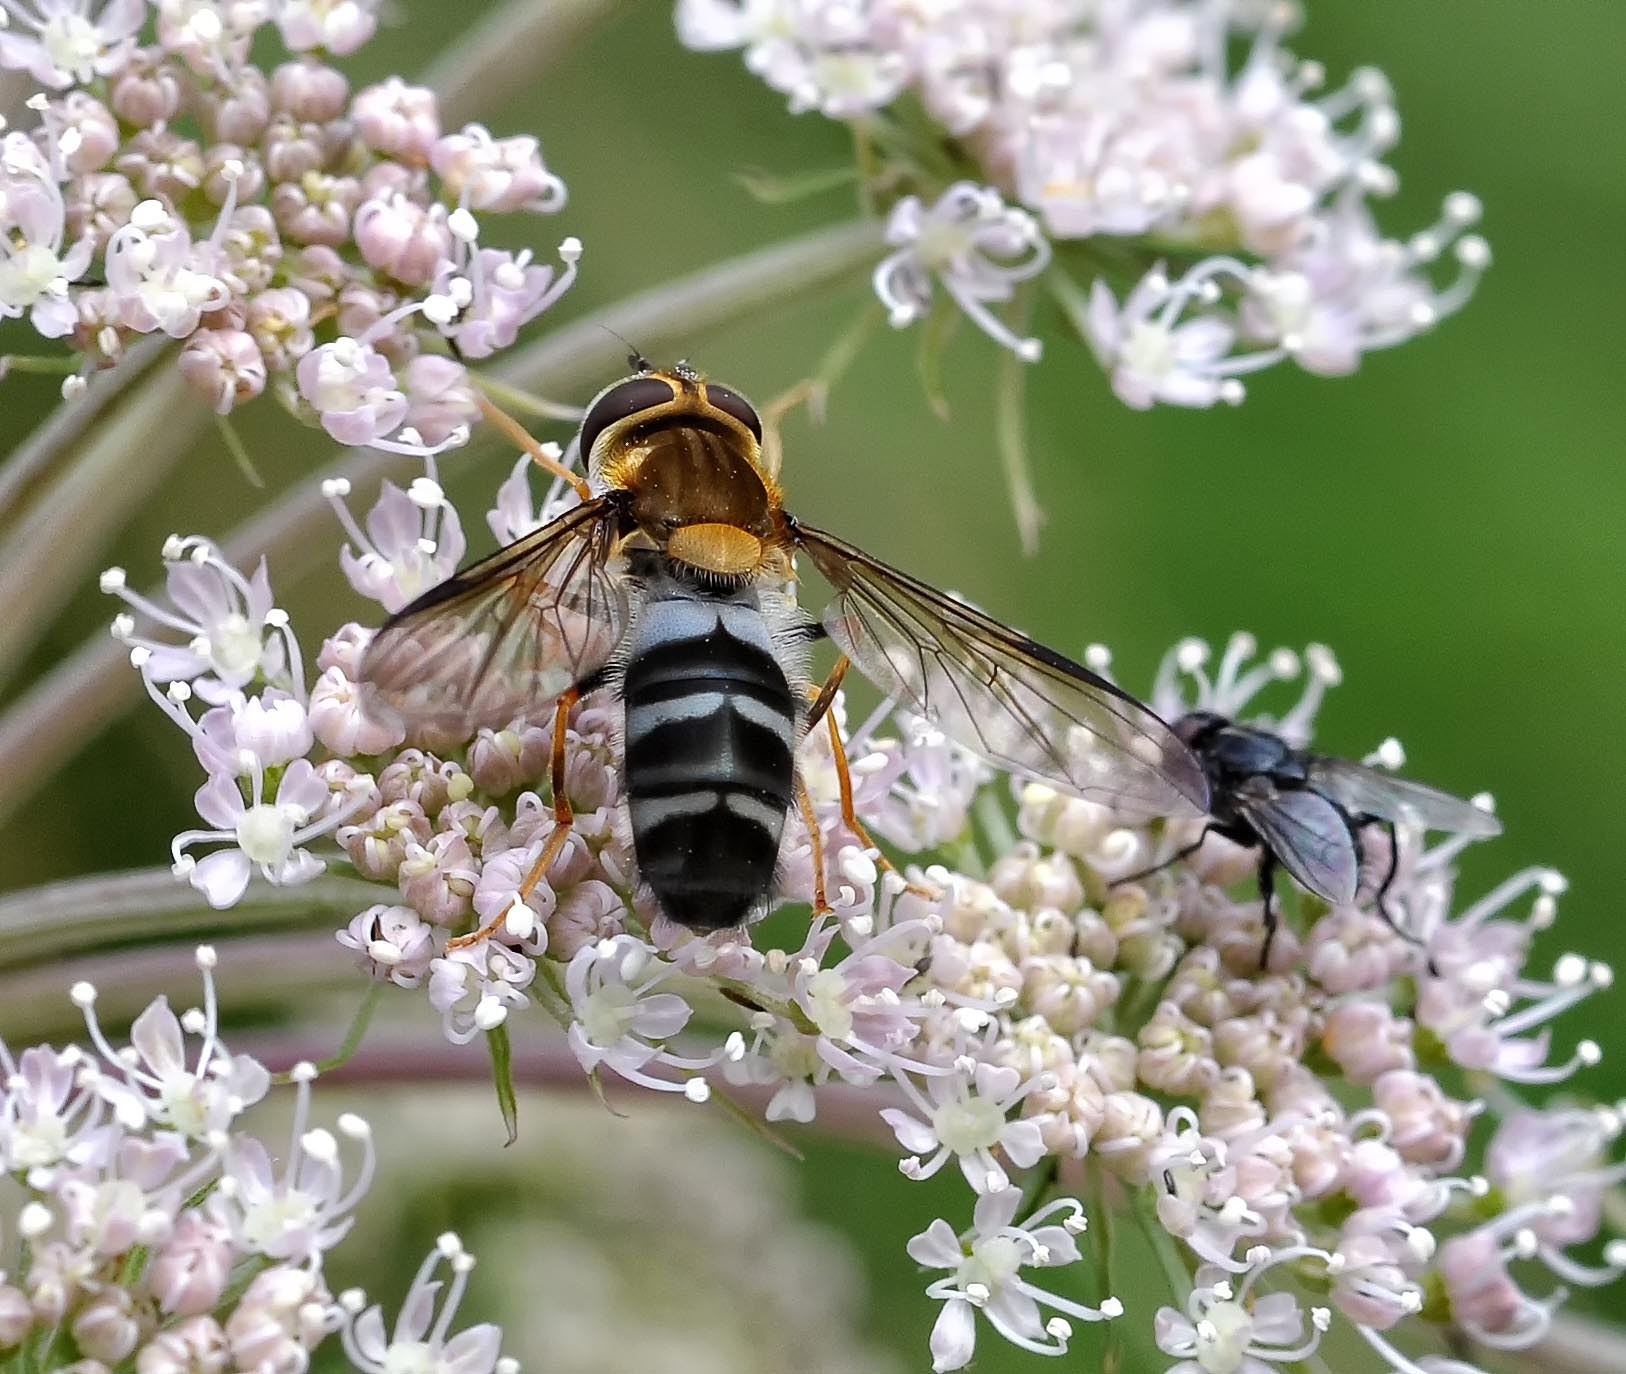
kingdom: Animalia
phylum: Arthropoda
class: Insecta
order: Diptera
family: Syrphidae
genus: Leucozona
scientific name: Leucozona glaucia
